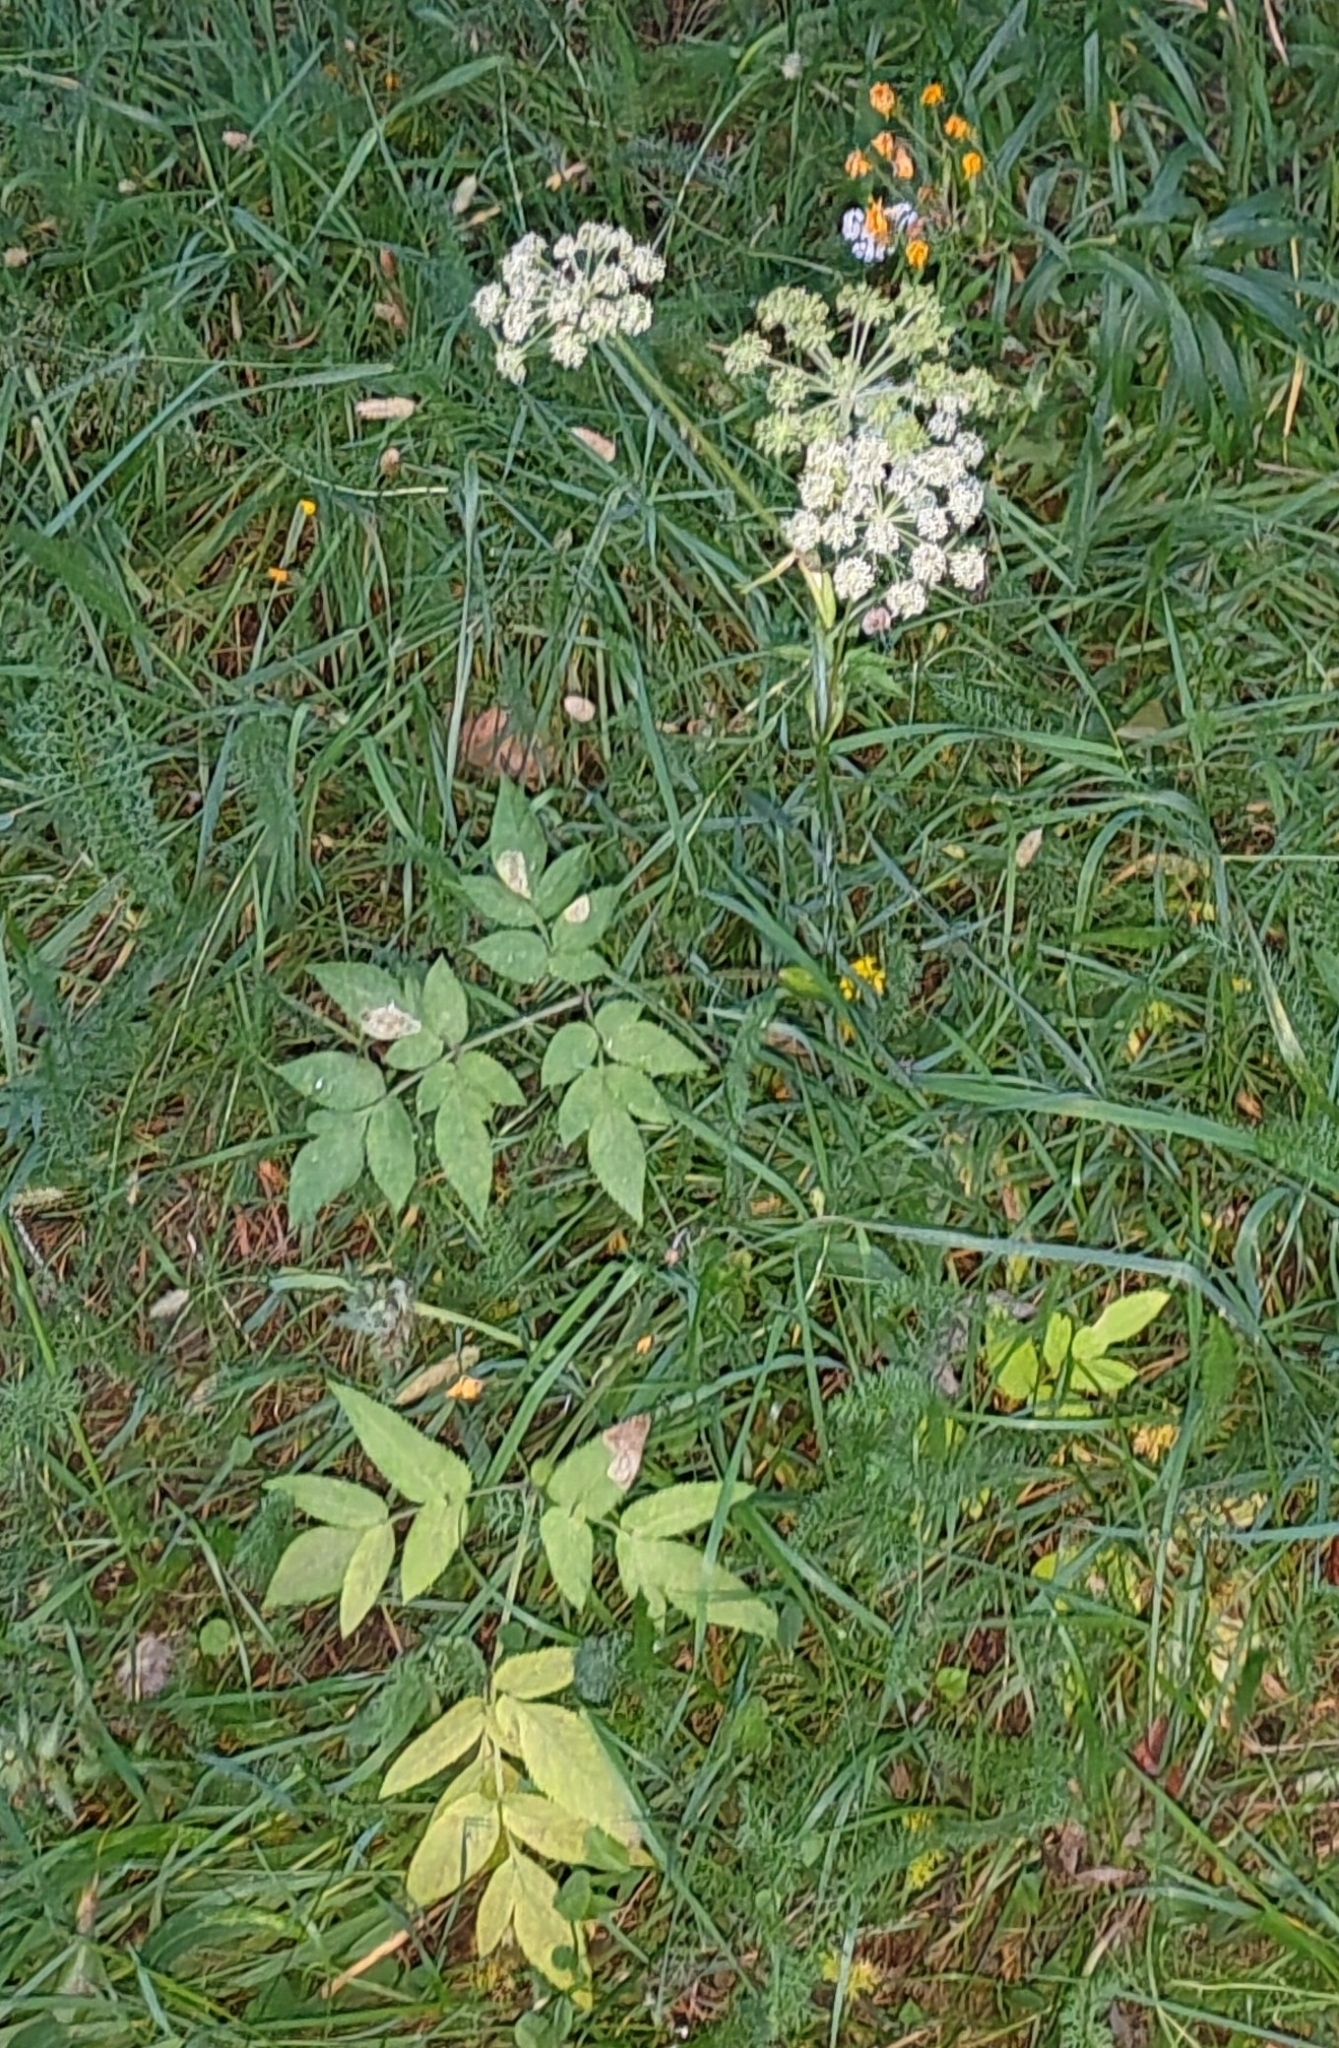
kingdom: Plantae
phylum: Tracheophyta
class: Magnoliopsida
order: Apiales
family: Apiaceae
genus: Angelica
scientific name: Angelica sylvestris
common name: Wild angelica
